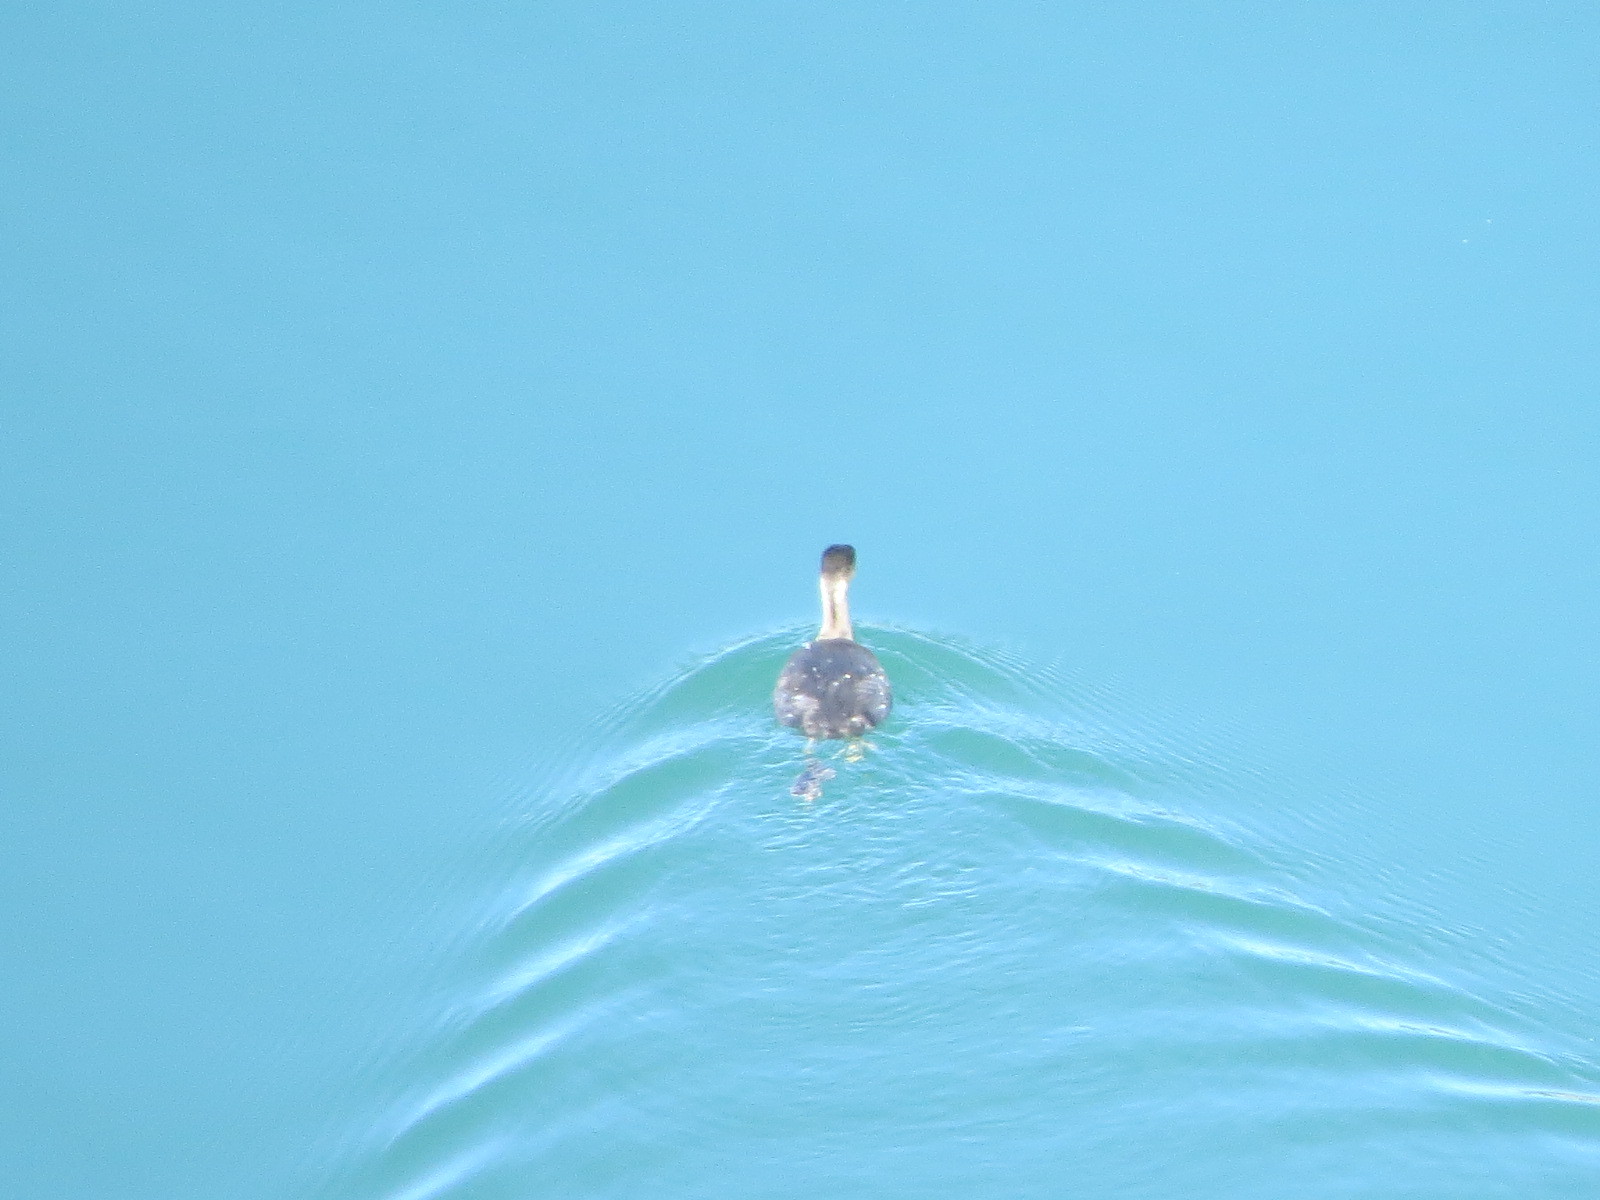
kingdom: Animalia
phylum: Chordata
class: Aves
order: Podicipediformes
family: Podicipedidae
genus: Podiceps
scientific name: Podiceps auritus
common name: Horned grebe
